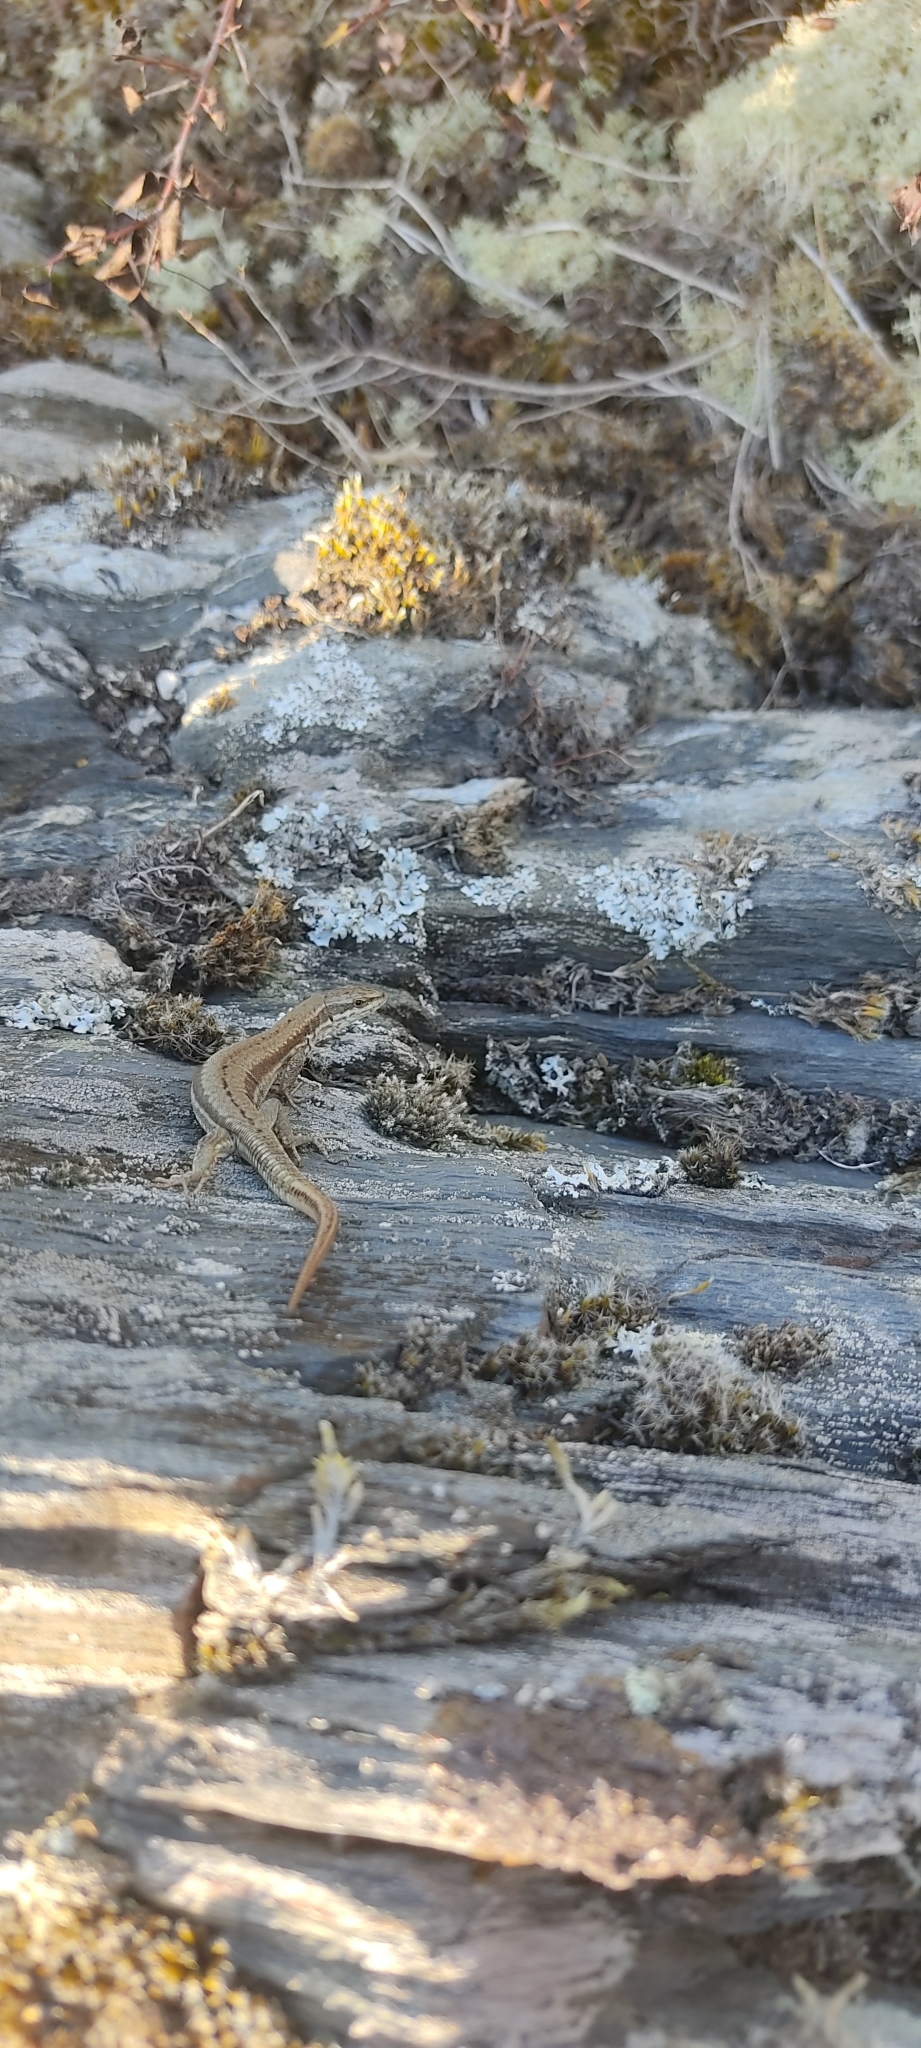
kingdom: Animalia
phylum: Chordata
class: Squamata
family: Lacertidae
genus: Podarcis
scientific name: Podarcis muralis
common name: Common wall lizard
